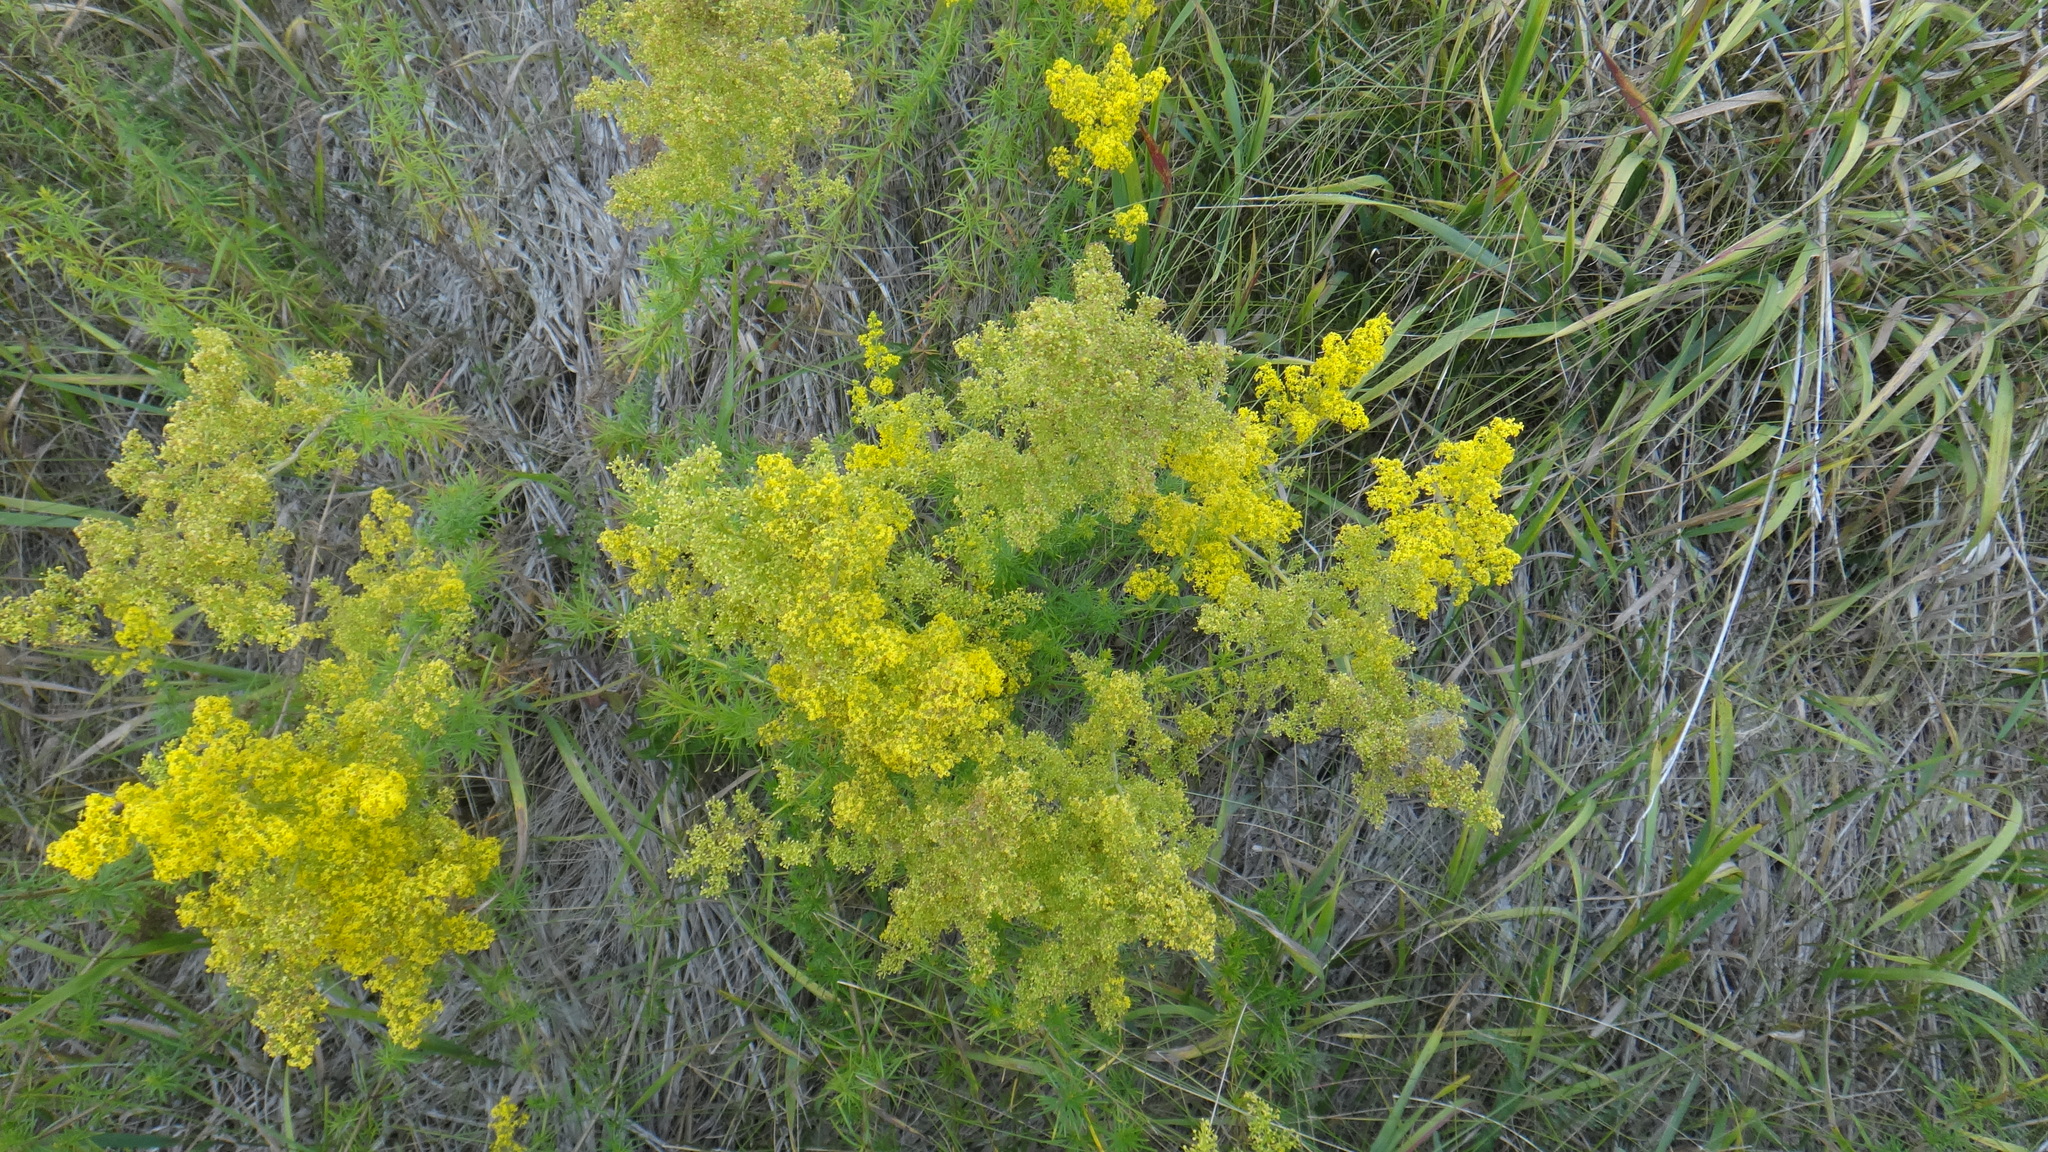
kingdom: Plantae
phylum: Tracheophyta
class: Magnoliopsida
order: Gentianales
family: Rubiaceae
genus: Galium
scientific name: Galium verum
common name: Lady's bedstraw
